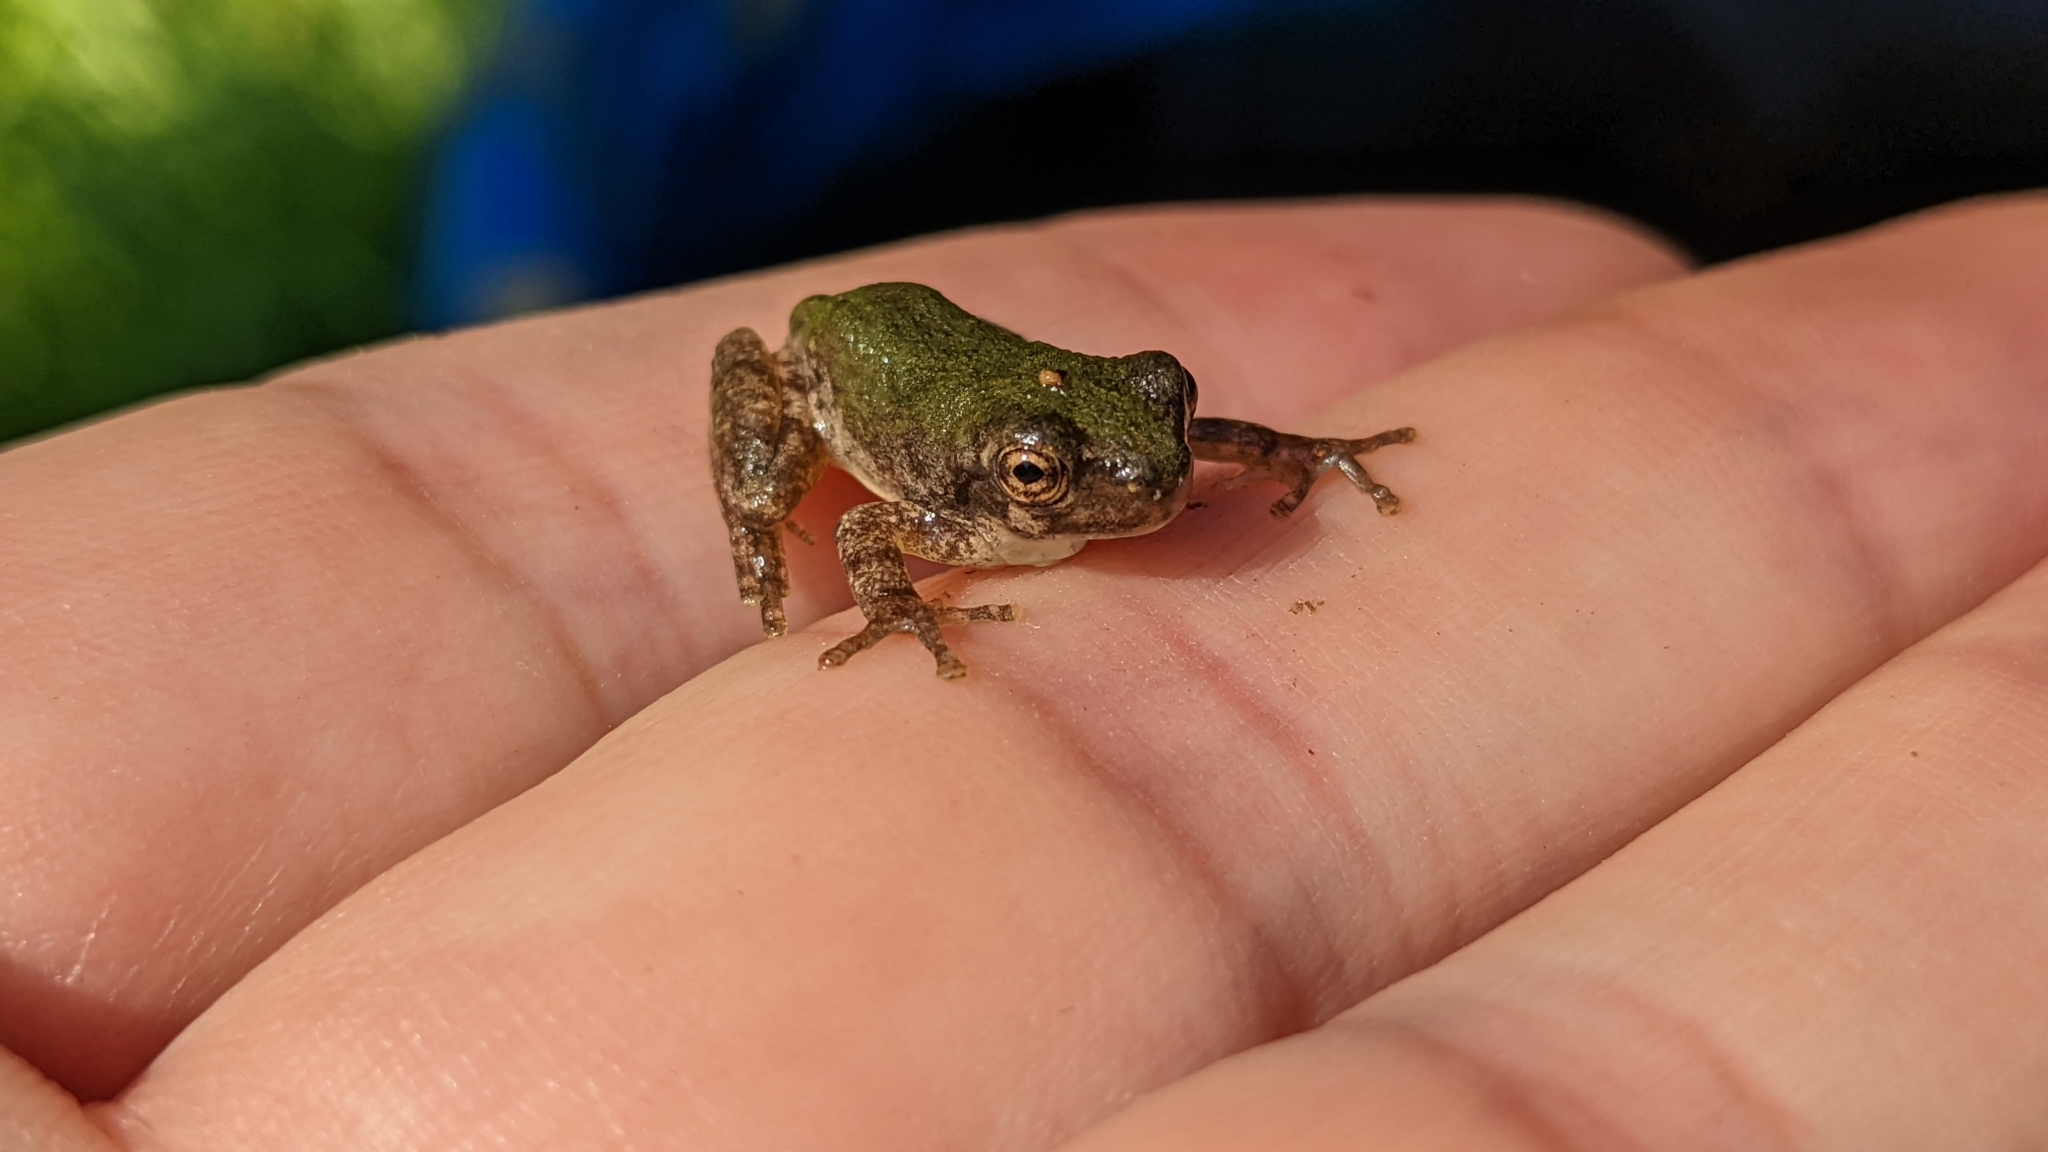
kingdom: Animalia
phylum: Chordata
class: Amphibia
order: Anura
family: Hylidae
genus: Dryophytes
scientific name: Dryophytes chrysoscelis
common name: Cope's gray treefrog
